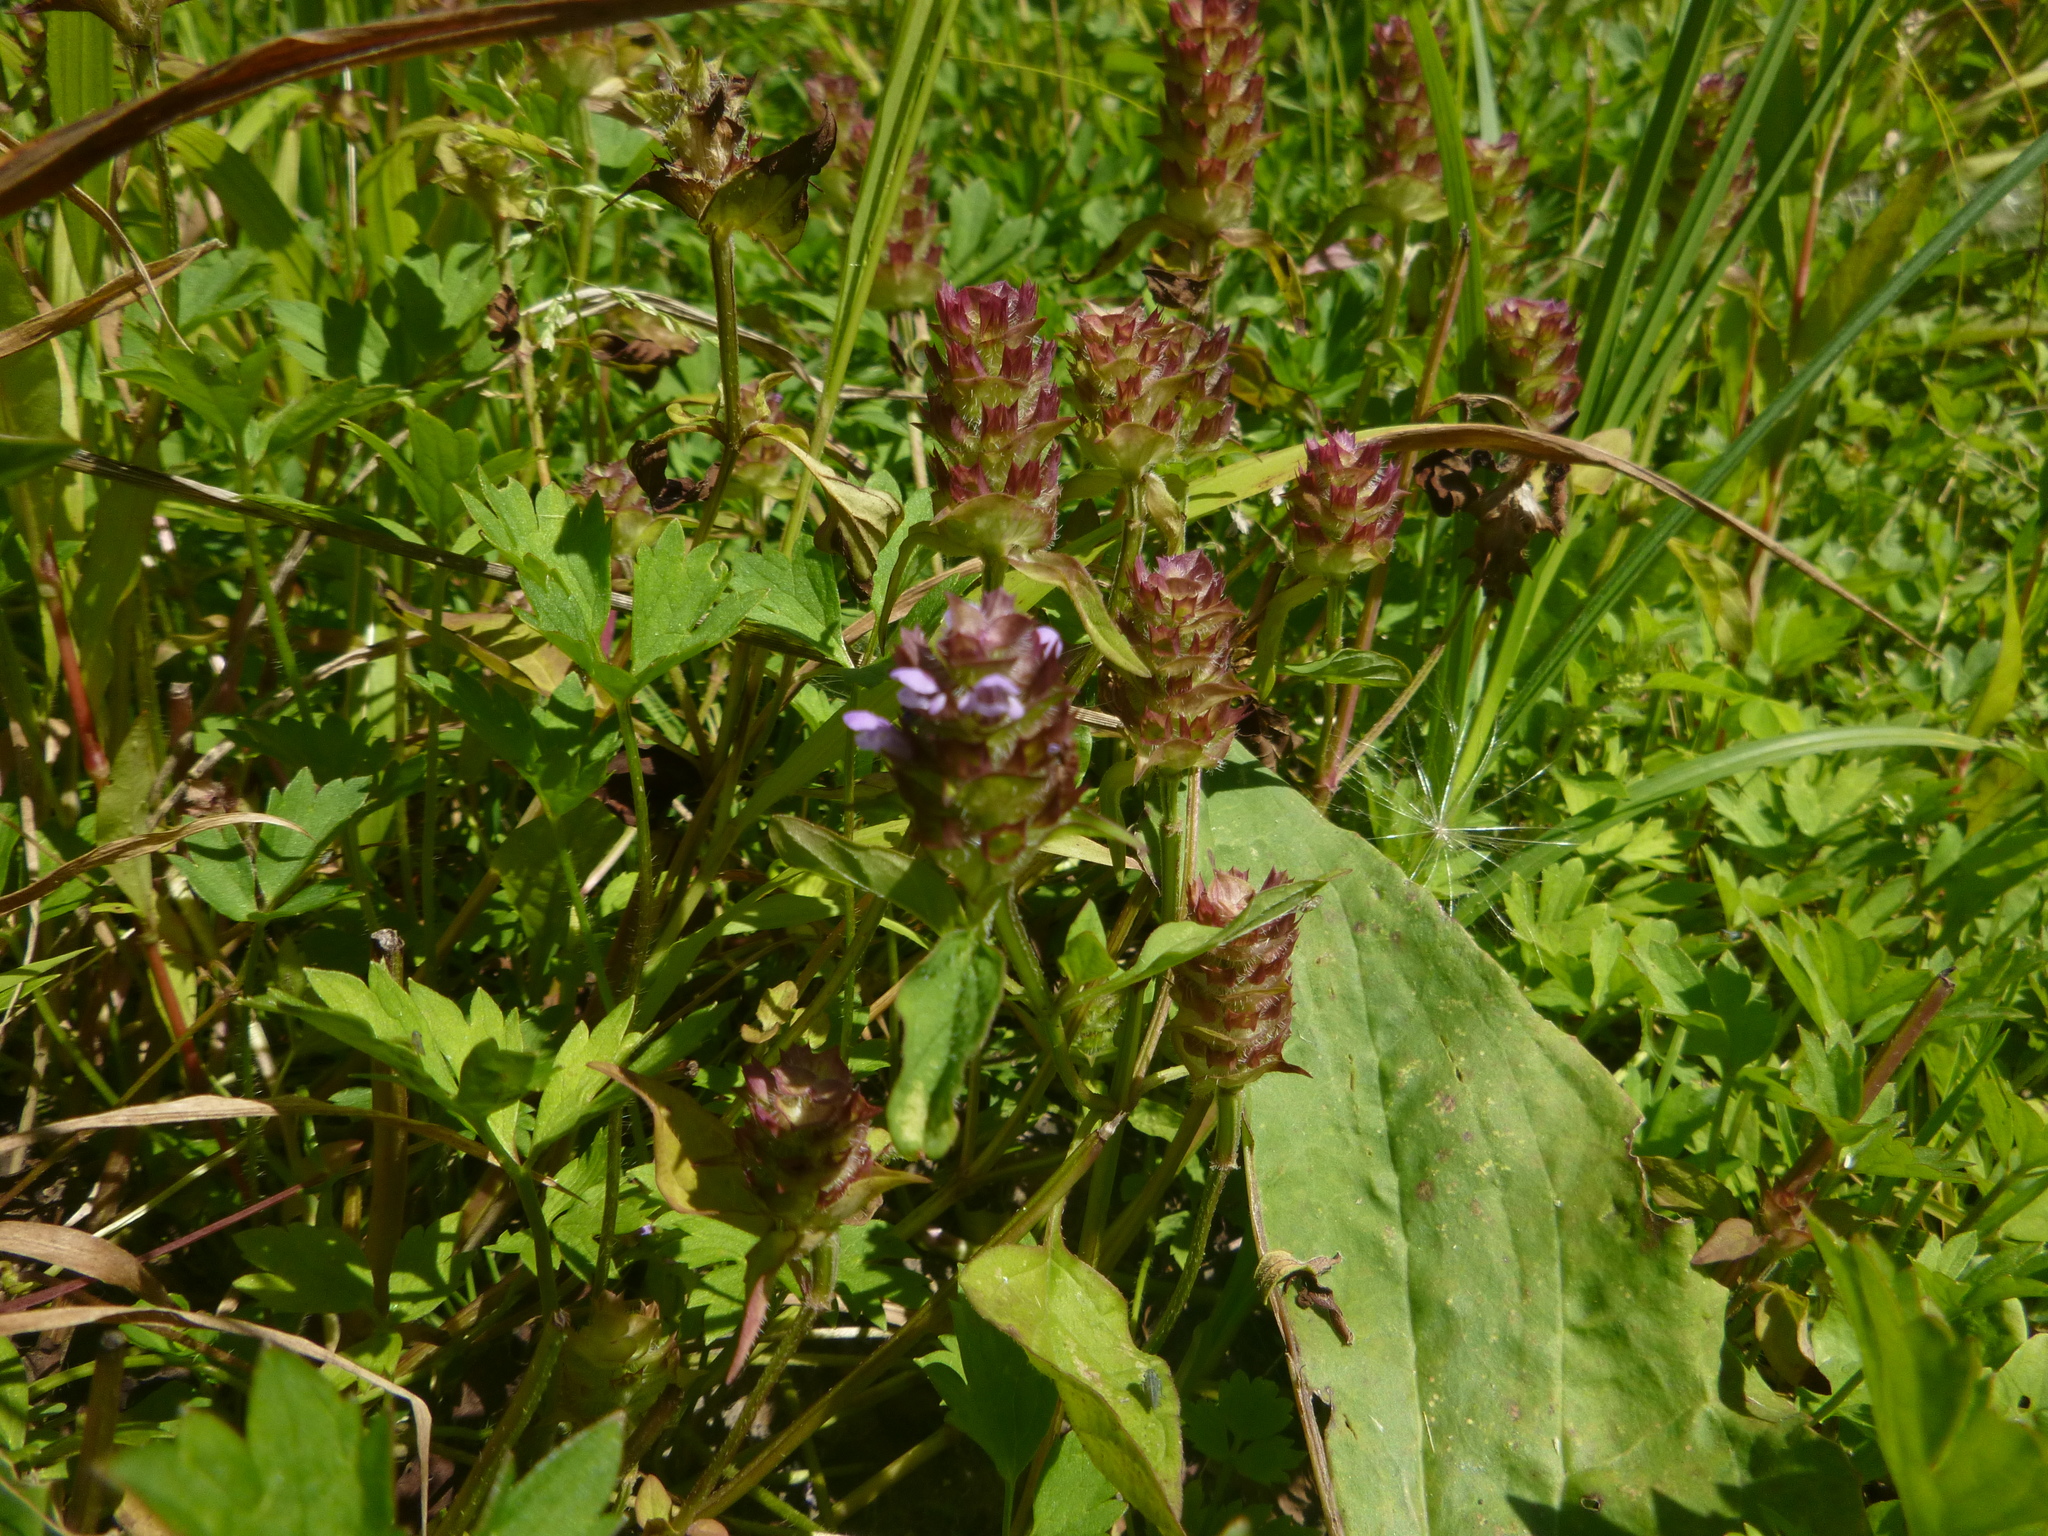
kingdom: Plantae
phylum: Tracheophyta
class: Magnoliopsida
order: Lamiales
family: Lamiaceae
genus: Prunella
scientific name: Prunella vulgaris
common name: Heal-all
